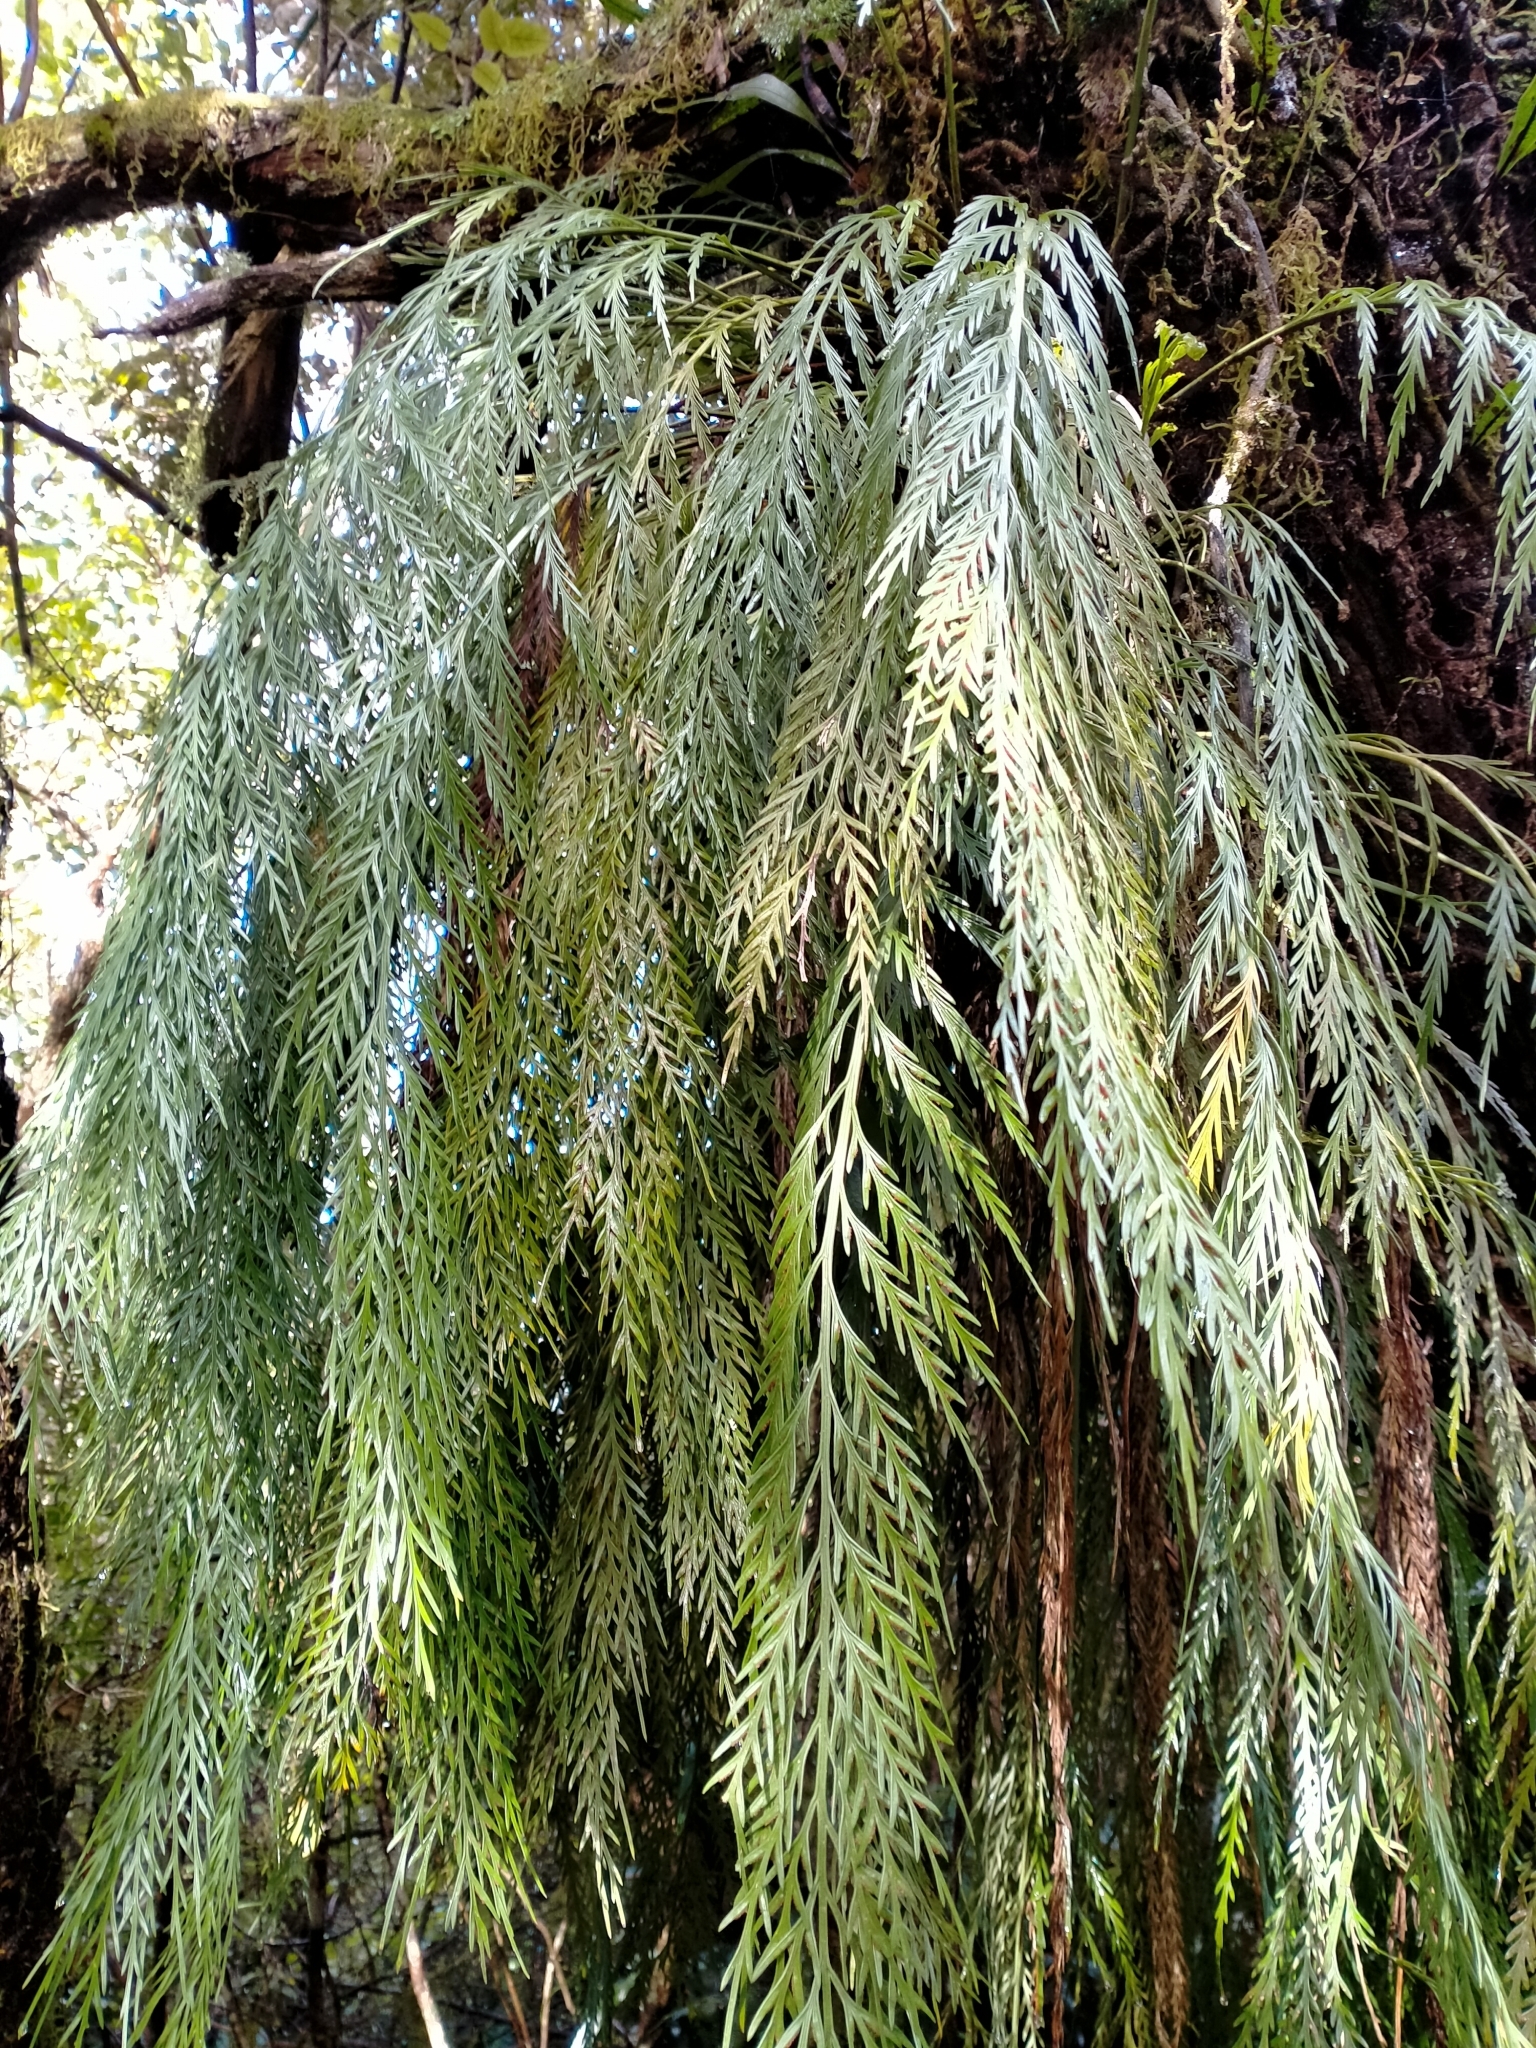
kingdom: Plantae
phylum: Tracheophyta
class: Polypodiopsida
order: Polypodiales
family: Aspleniaceae
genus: Asplenium
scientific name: Asplenium flaccidum
